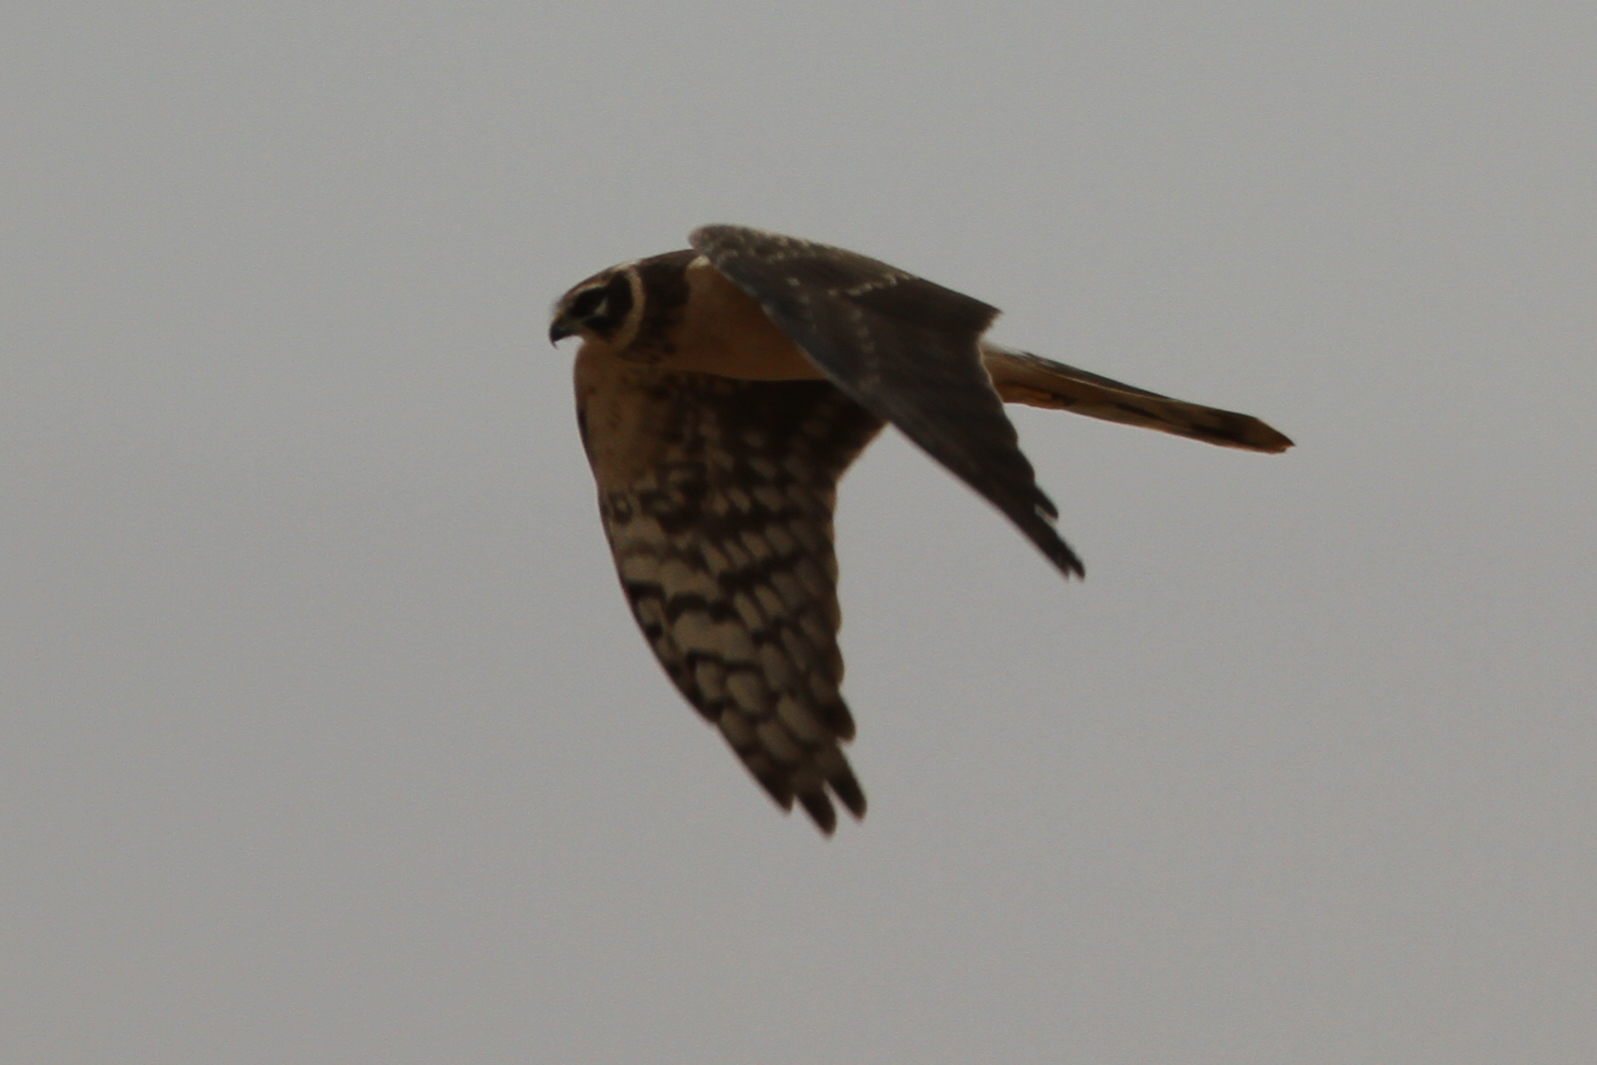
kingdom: Animalia
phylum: Chordata
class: Aves
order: Accipitriformes
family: Accipitridae
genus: Circus
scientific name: Circus macrourus
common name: Pallid harrier
